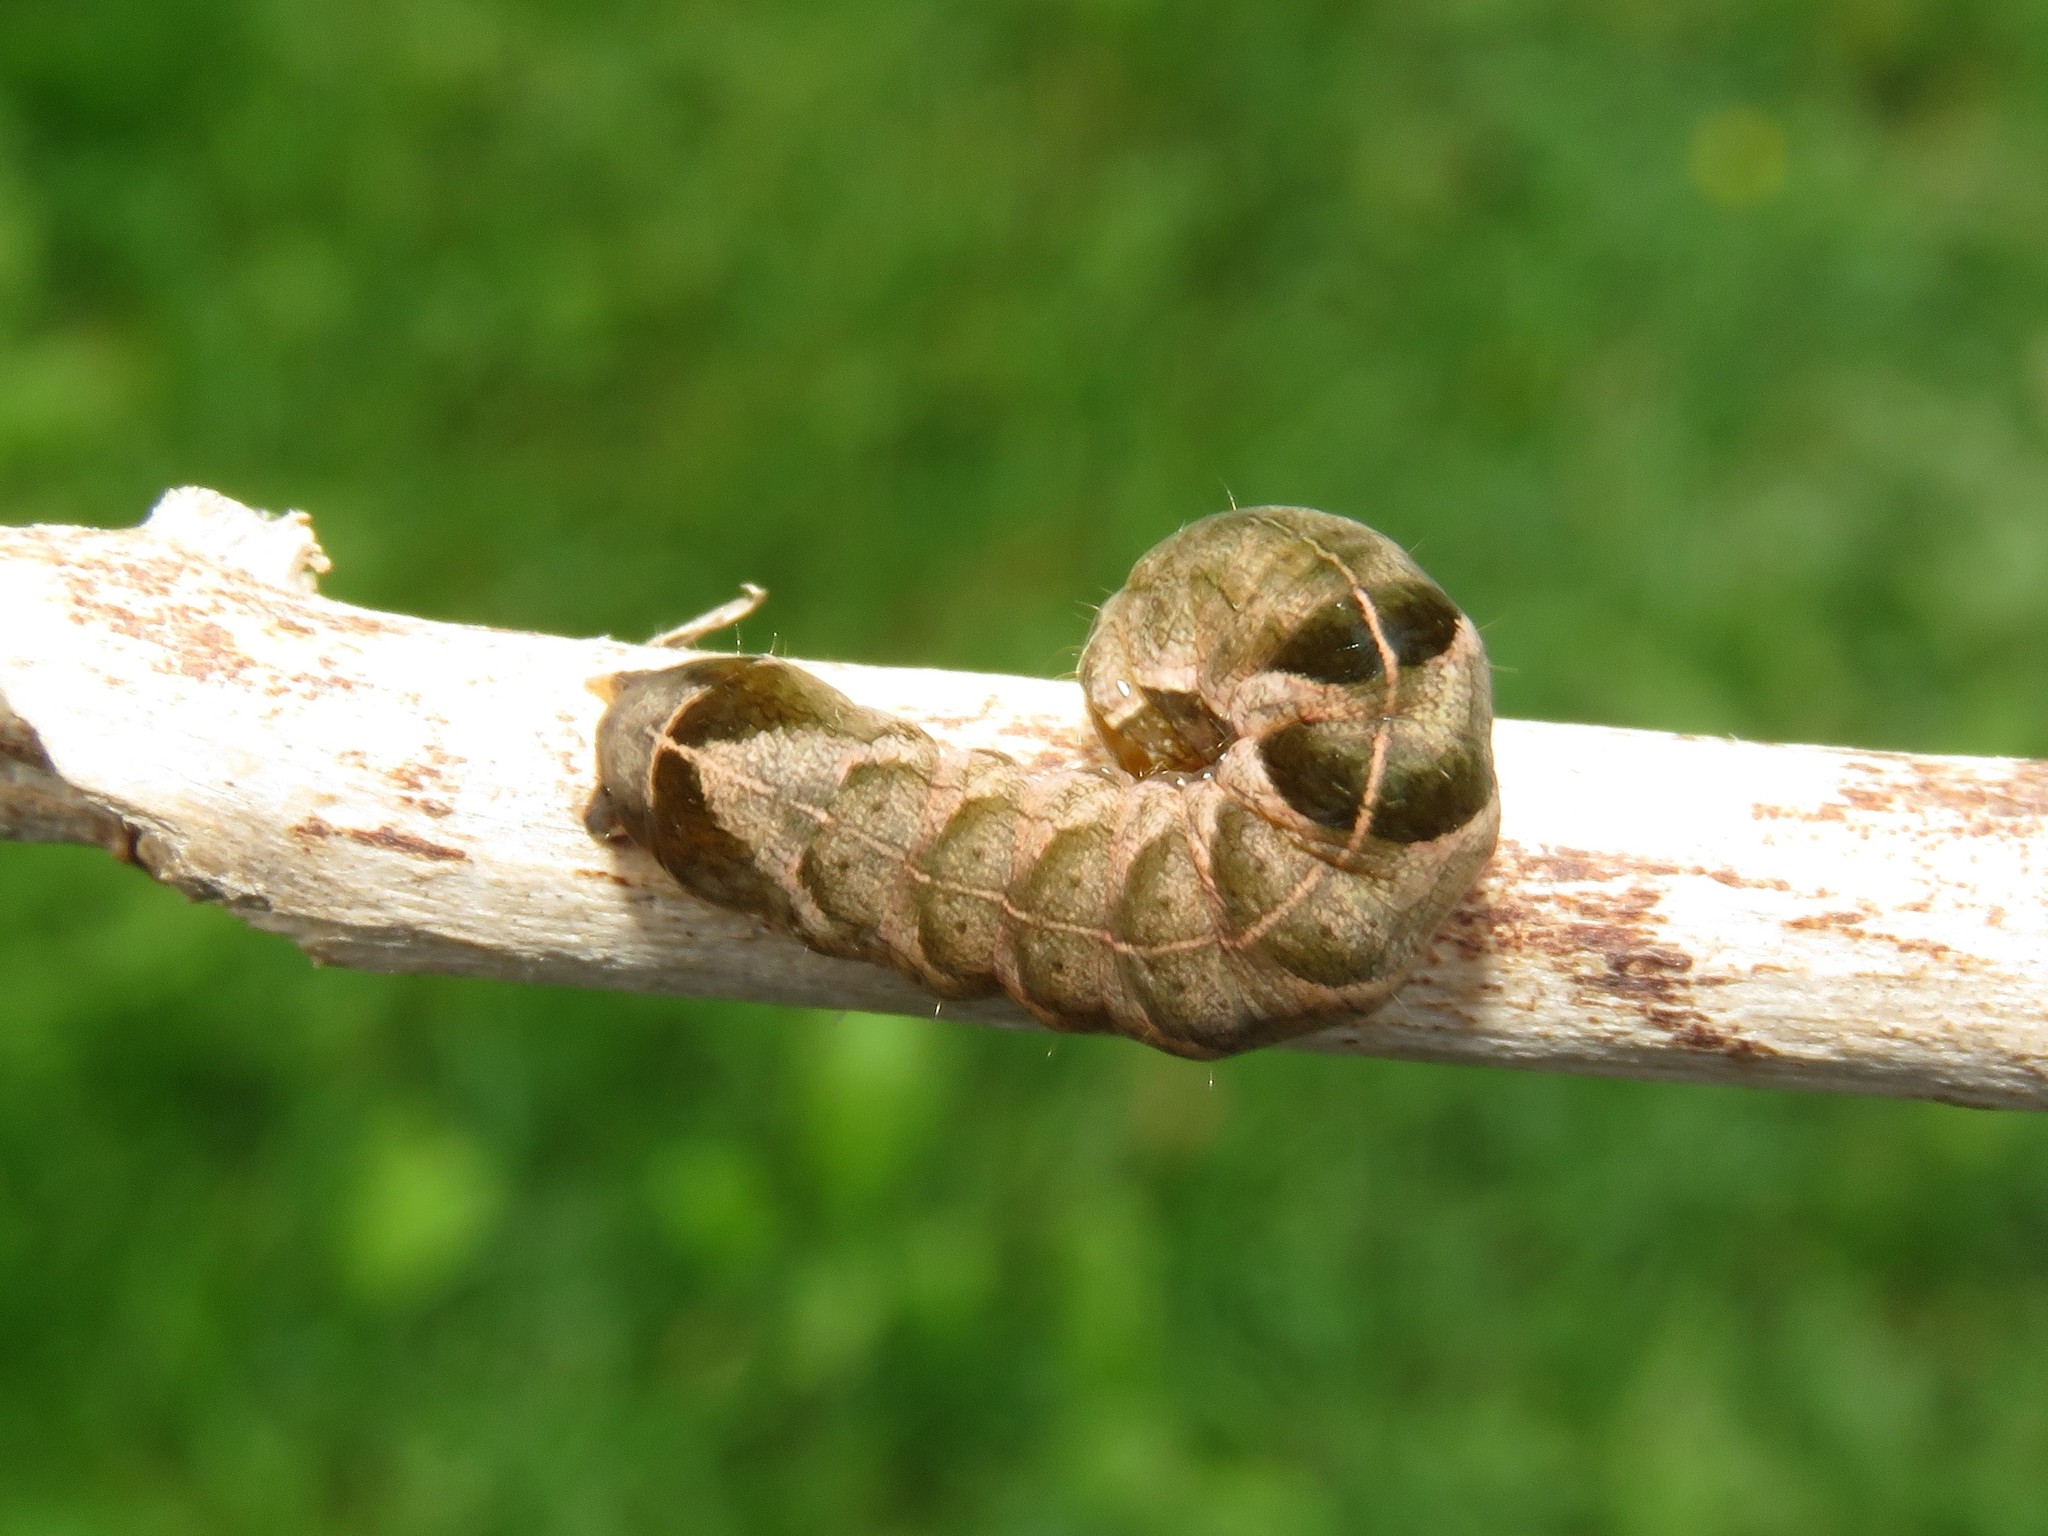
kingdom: Animalia
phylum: Arthropoda
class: Insecta
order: Lepidoptera
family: Noctuidae
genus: Melanchra
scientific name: Melanchra adjuncta
